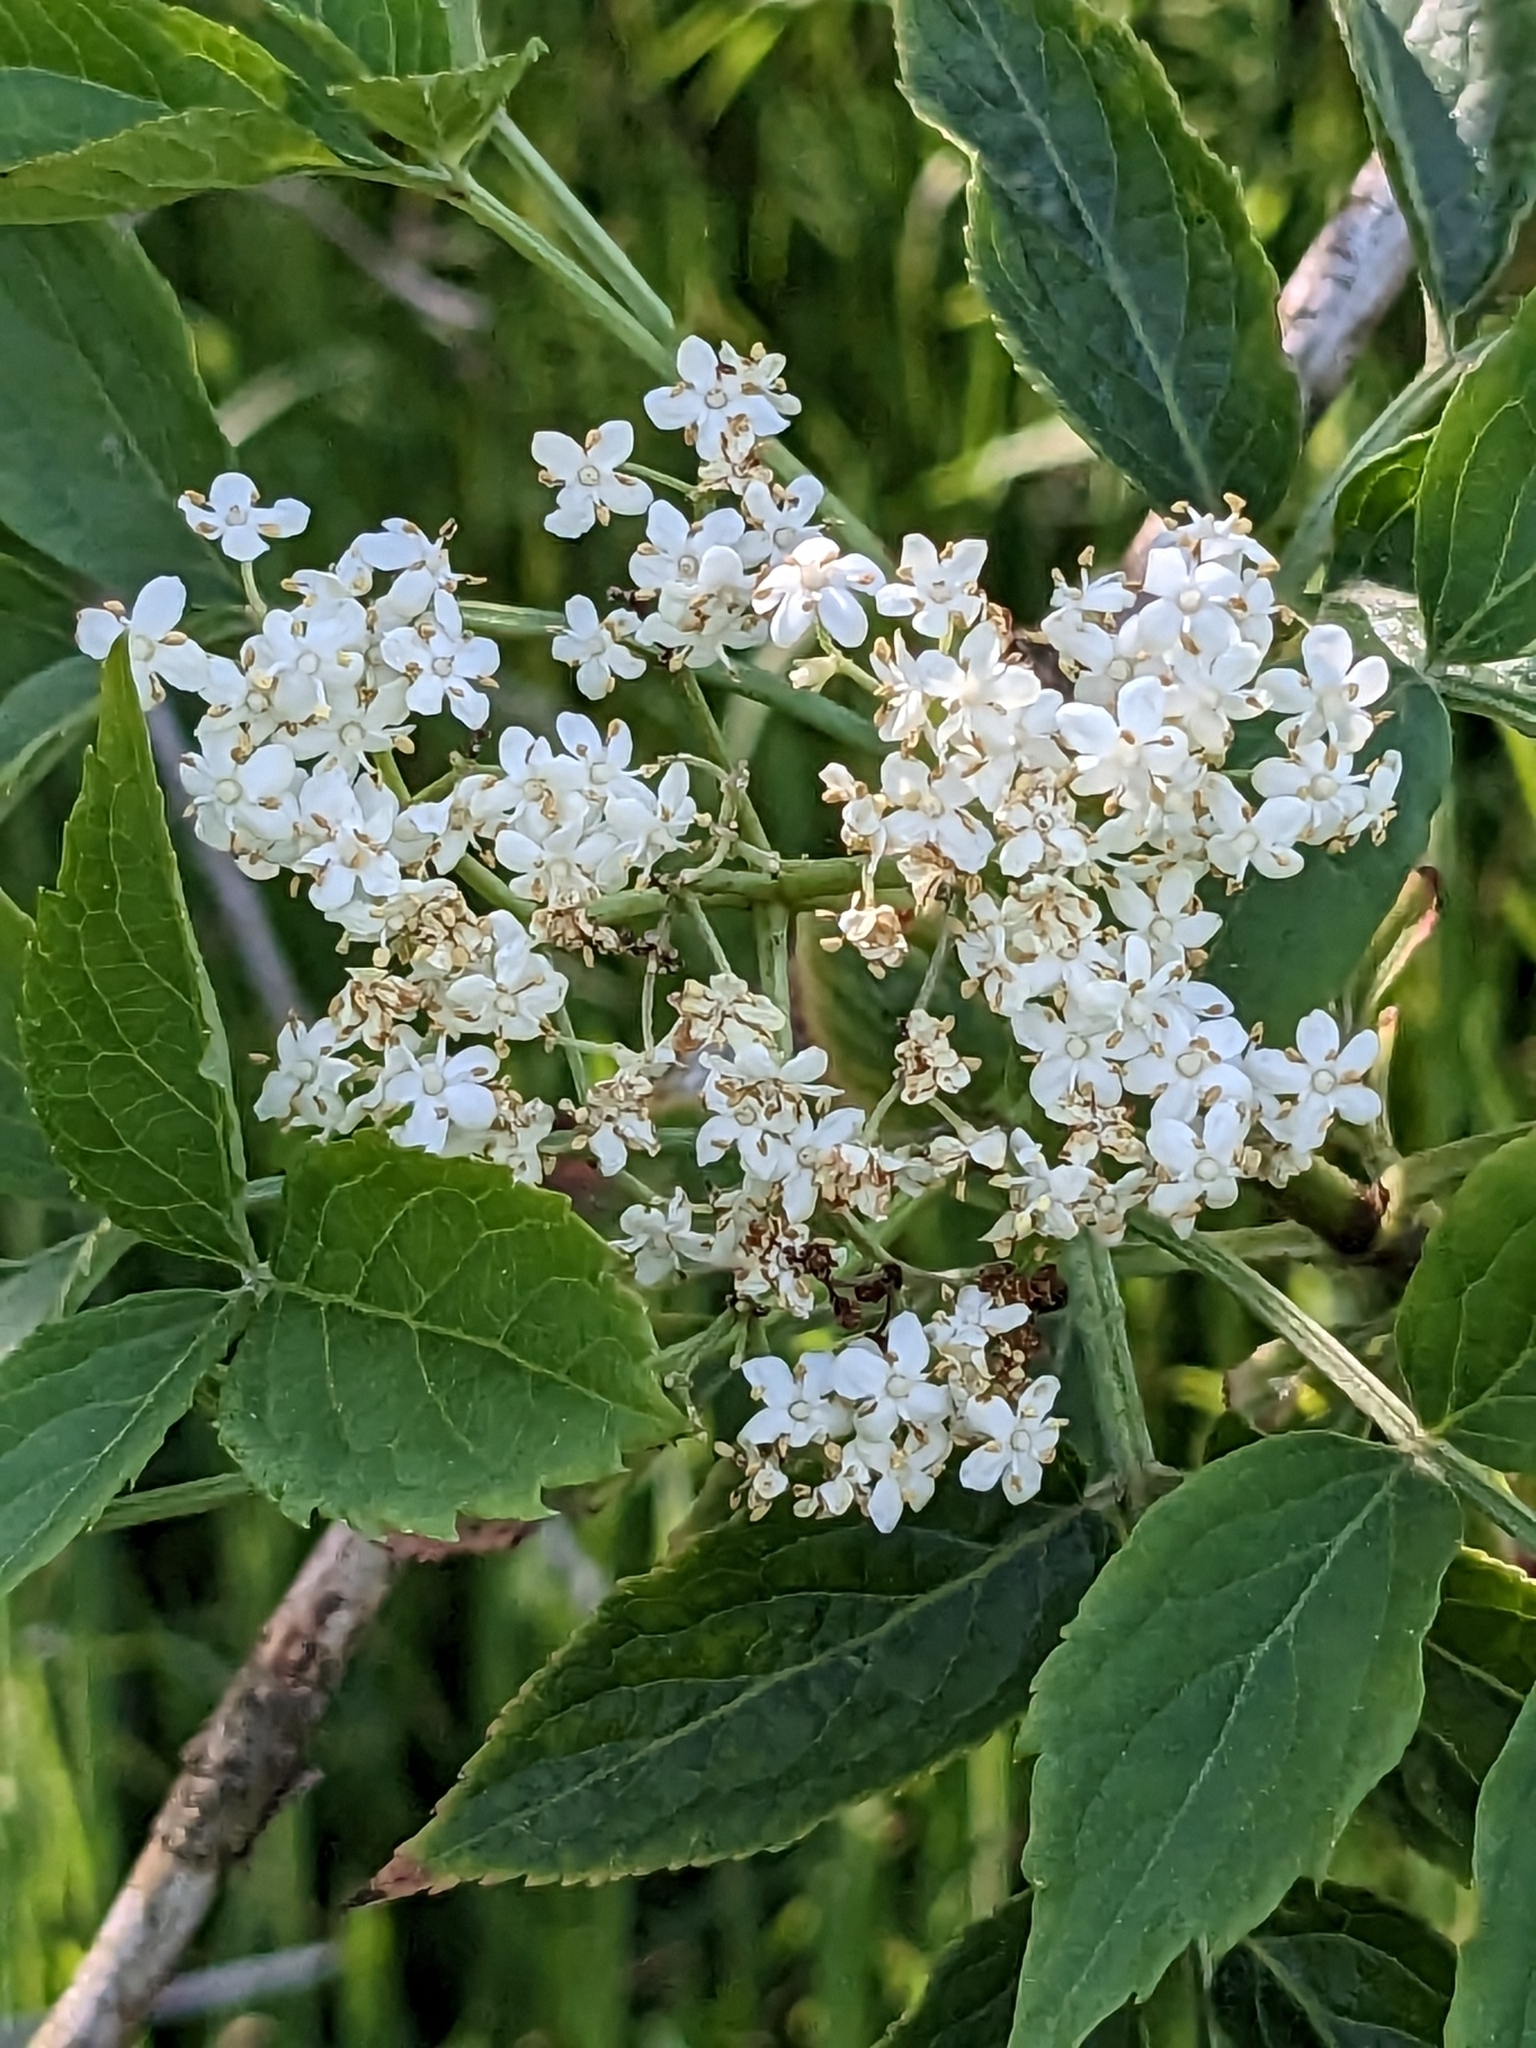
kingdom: Plantae
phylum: Tracheophyta
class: Magnoliopsida
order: Dipsacales
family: Viburnaceae
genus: Sambucus
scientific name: Sambucus nigra
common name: Elder
